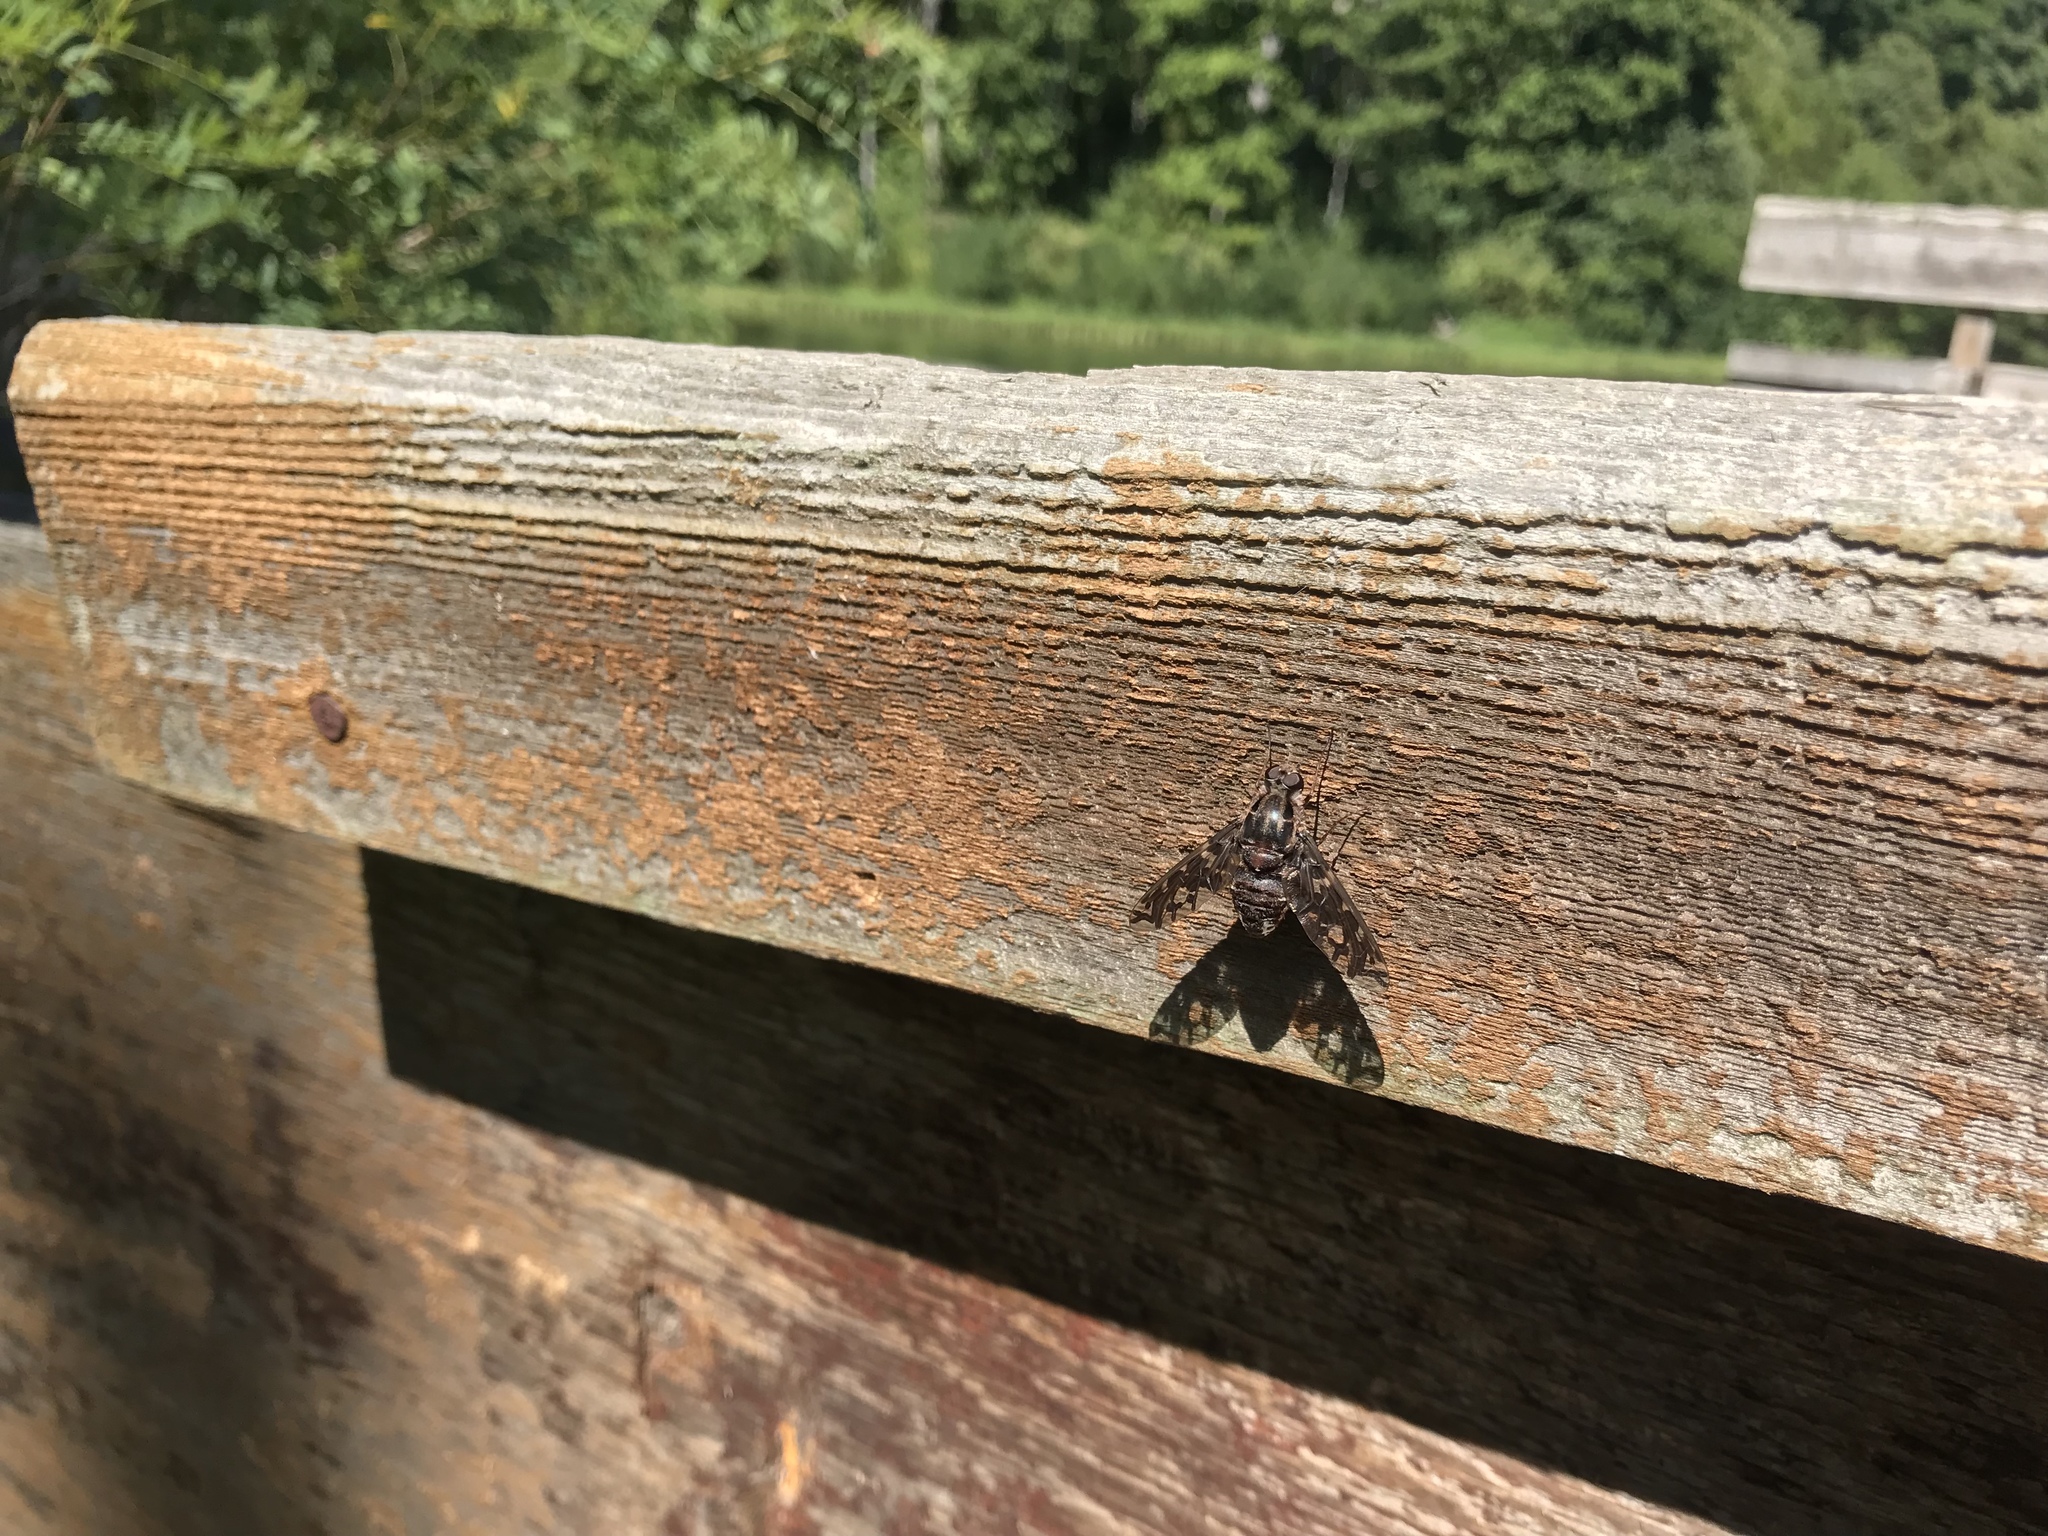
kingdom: Animalia
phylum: Arthropoda
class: Insecta
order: Diptera
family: Bombyliidae
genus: Xenox
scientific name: Xenox tigrinus
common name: Tiger bee fly
